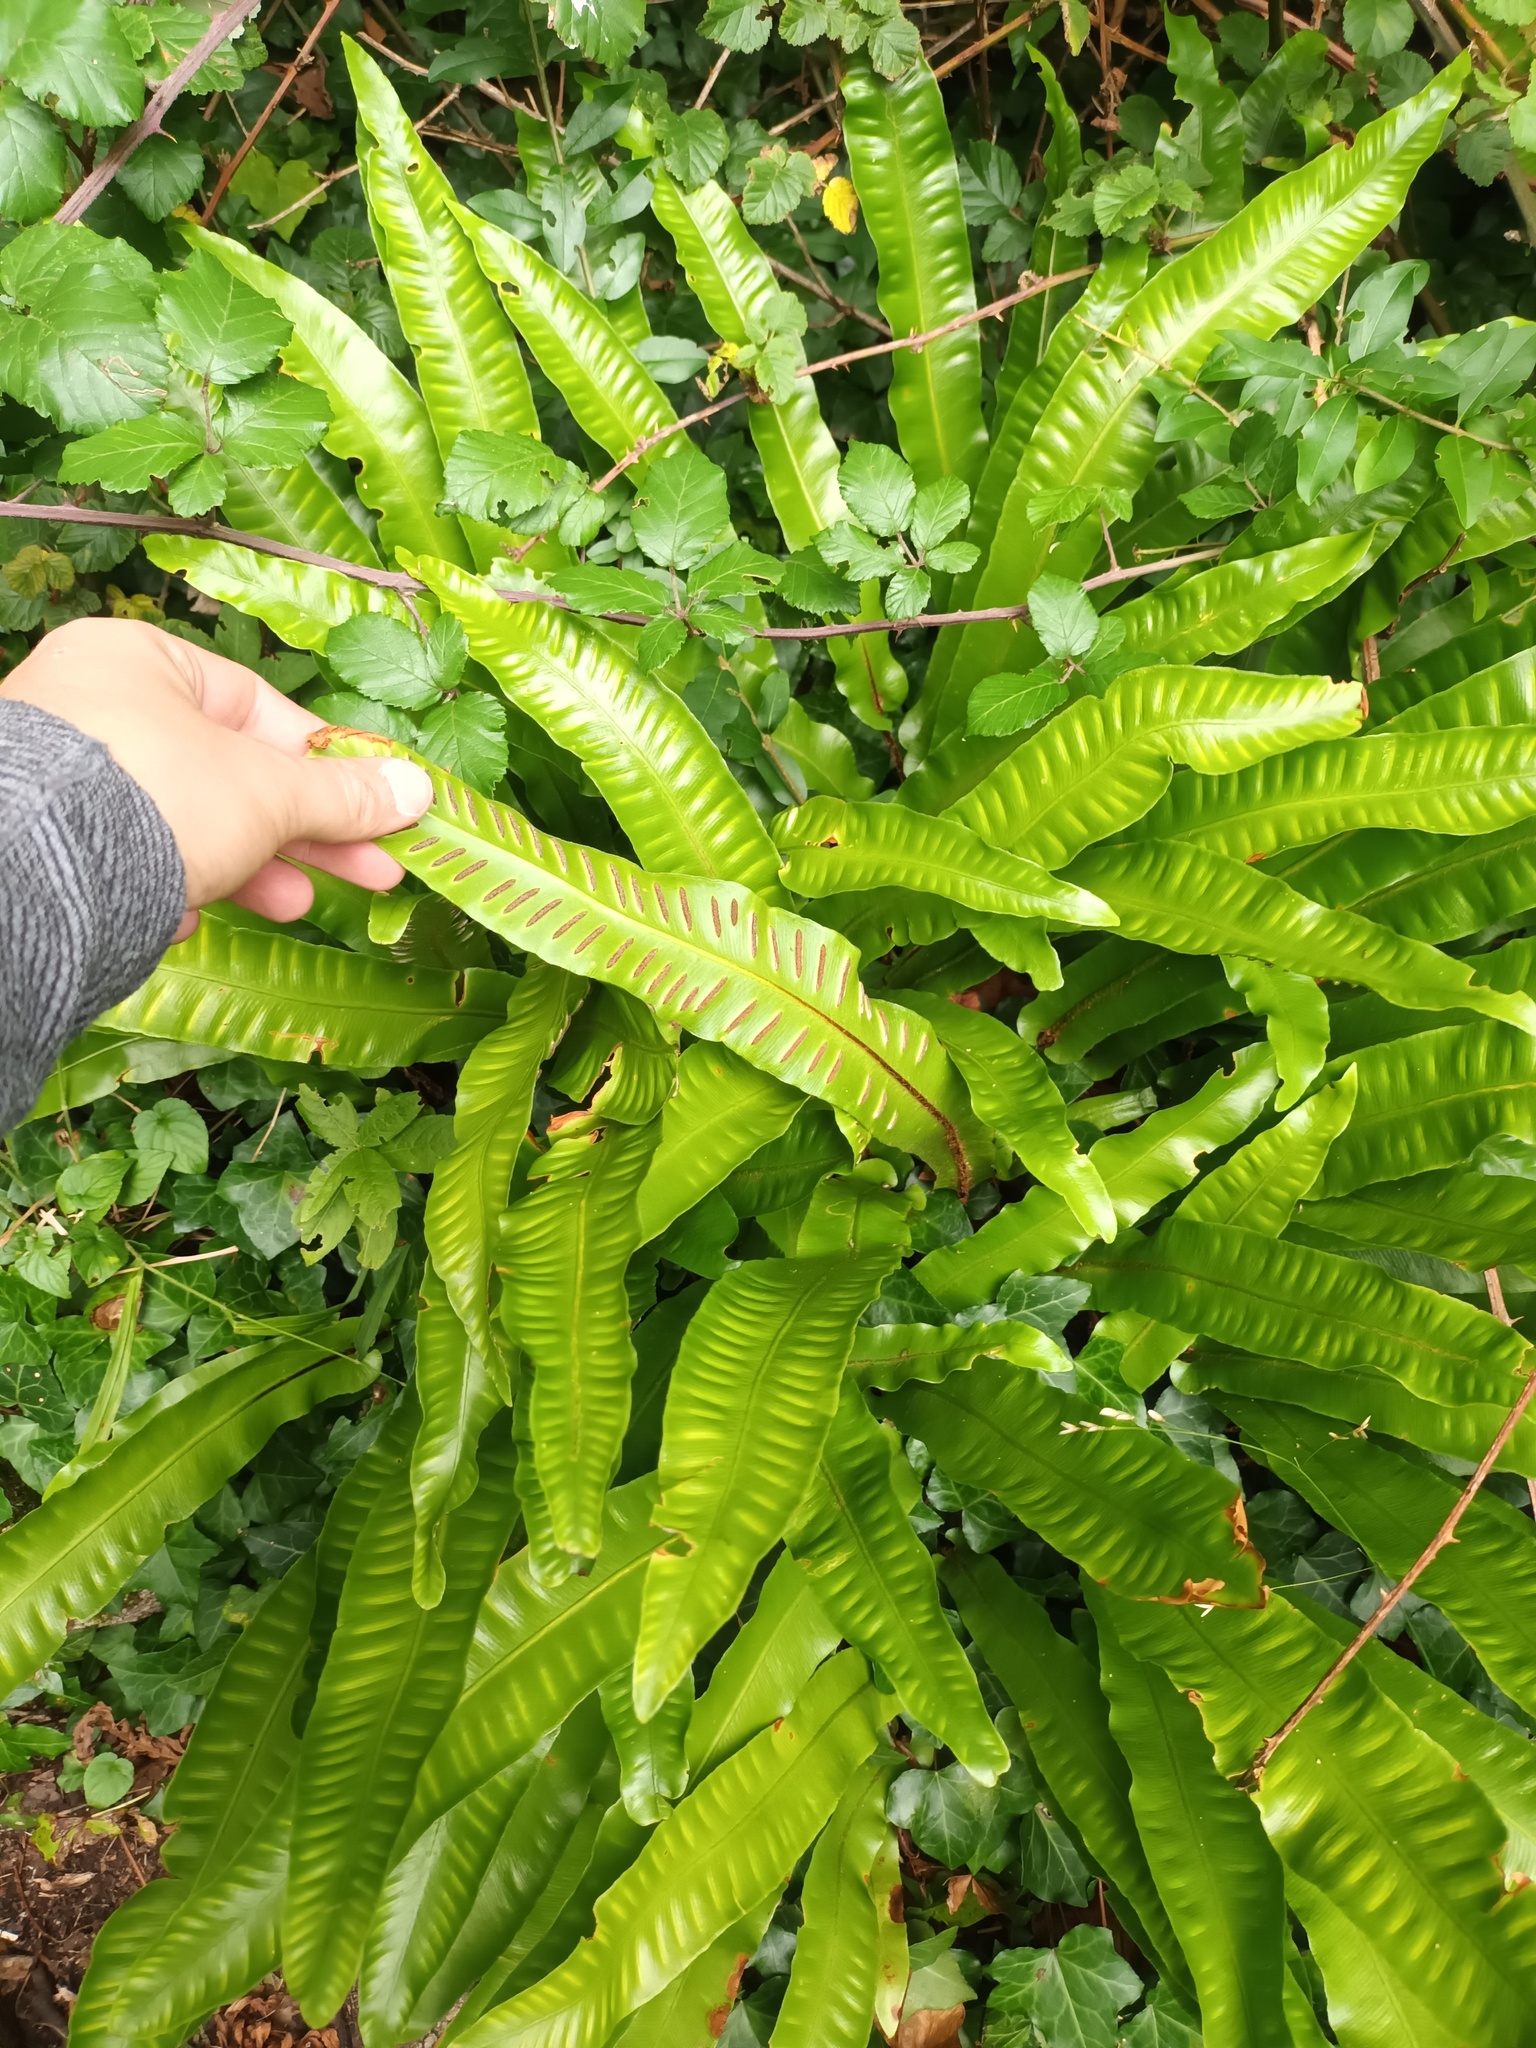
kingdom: Plantae
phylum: Tracheophyta
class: Polypodiopsida
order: Polypodiales
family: Aspleniaceae
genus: Asplenium
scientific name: Asplenium scolopendrium
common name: Hart's-tongue fern
